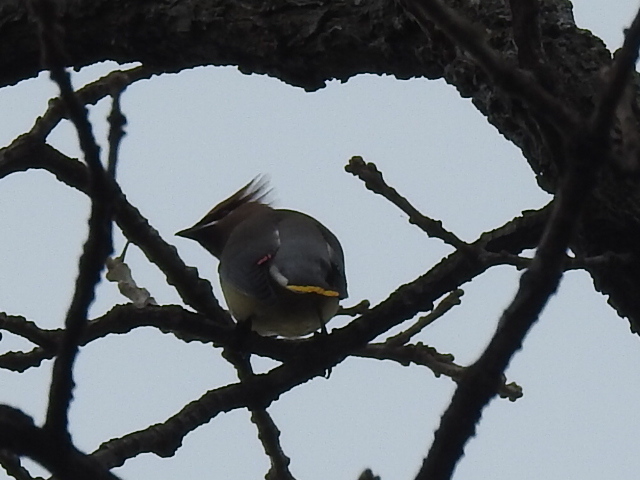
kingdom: Animalia
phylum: Chordata
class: Aves
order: Passeriformes
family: Bombycillidae
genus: Bombycilla
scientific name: Bombycilla cedrorum
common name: Cedar waxwing
